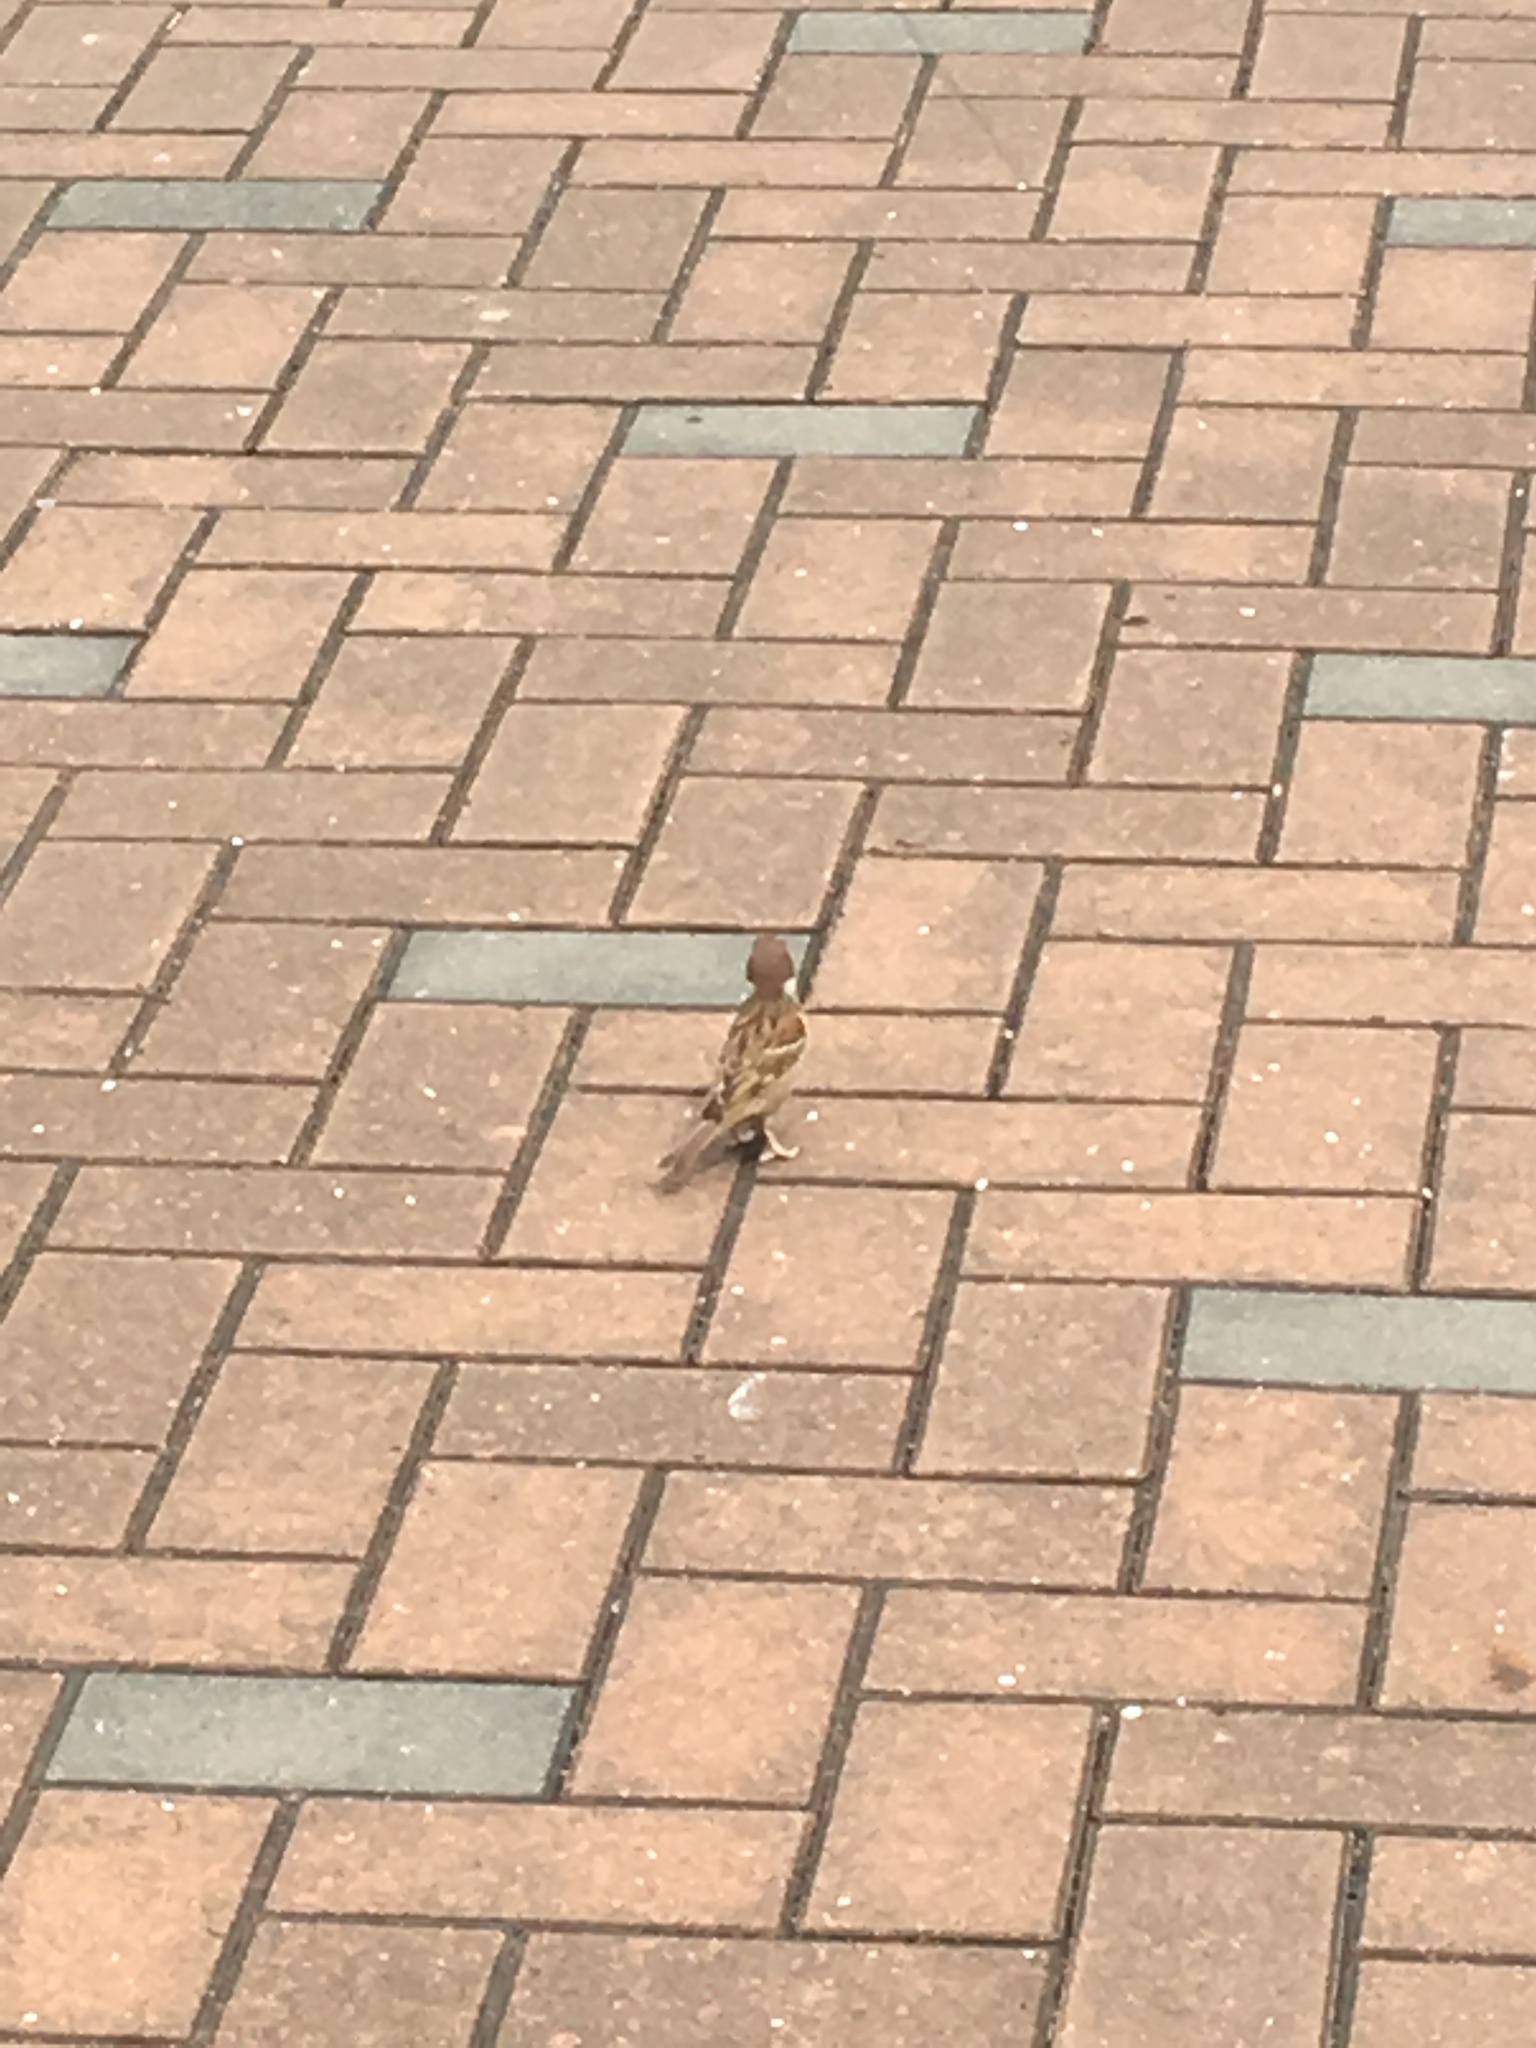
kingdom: Animalia
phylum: Chordata
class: Aves
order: Passeriformes
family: Passeridae
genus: Passer
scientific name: Passer montanus
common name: Eurasian tree sparrow
